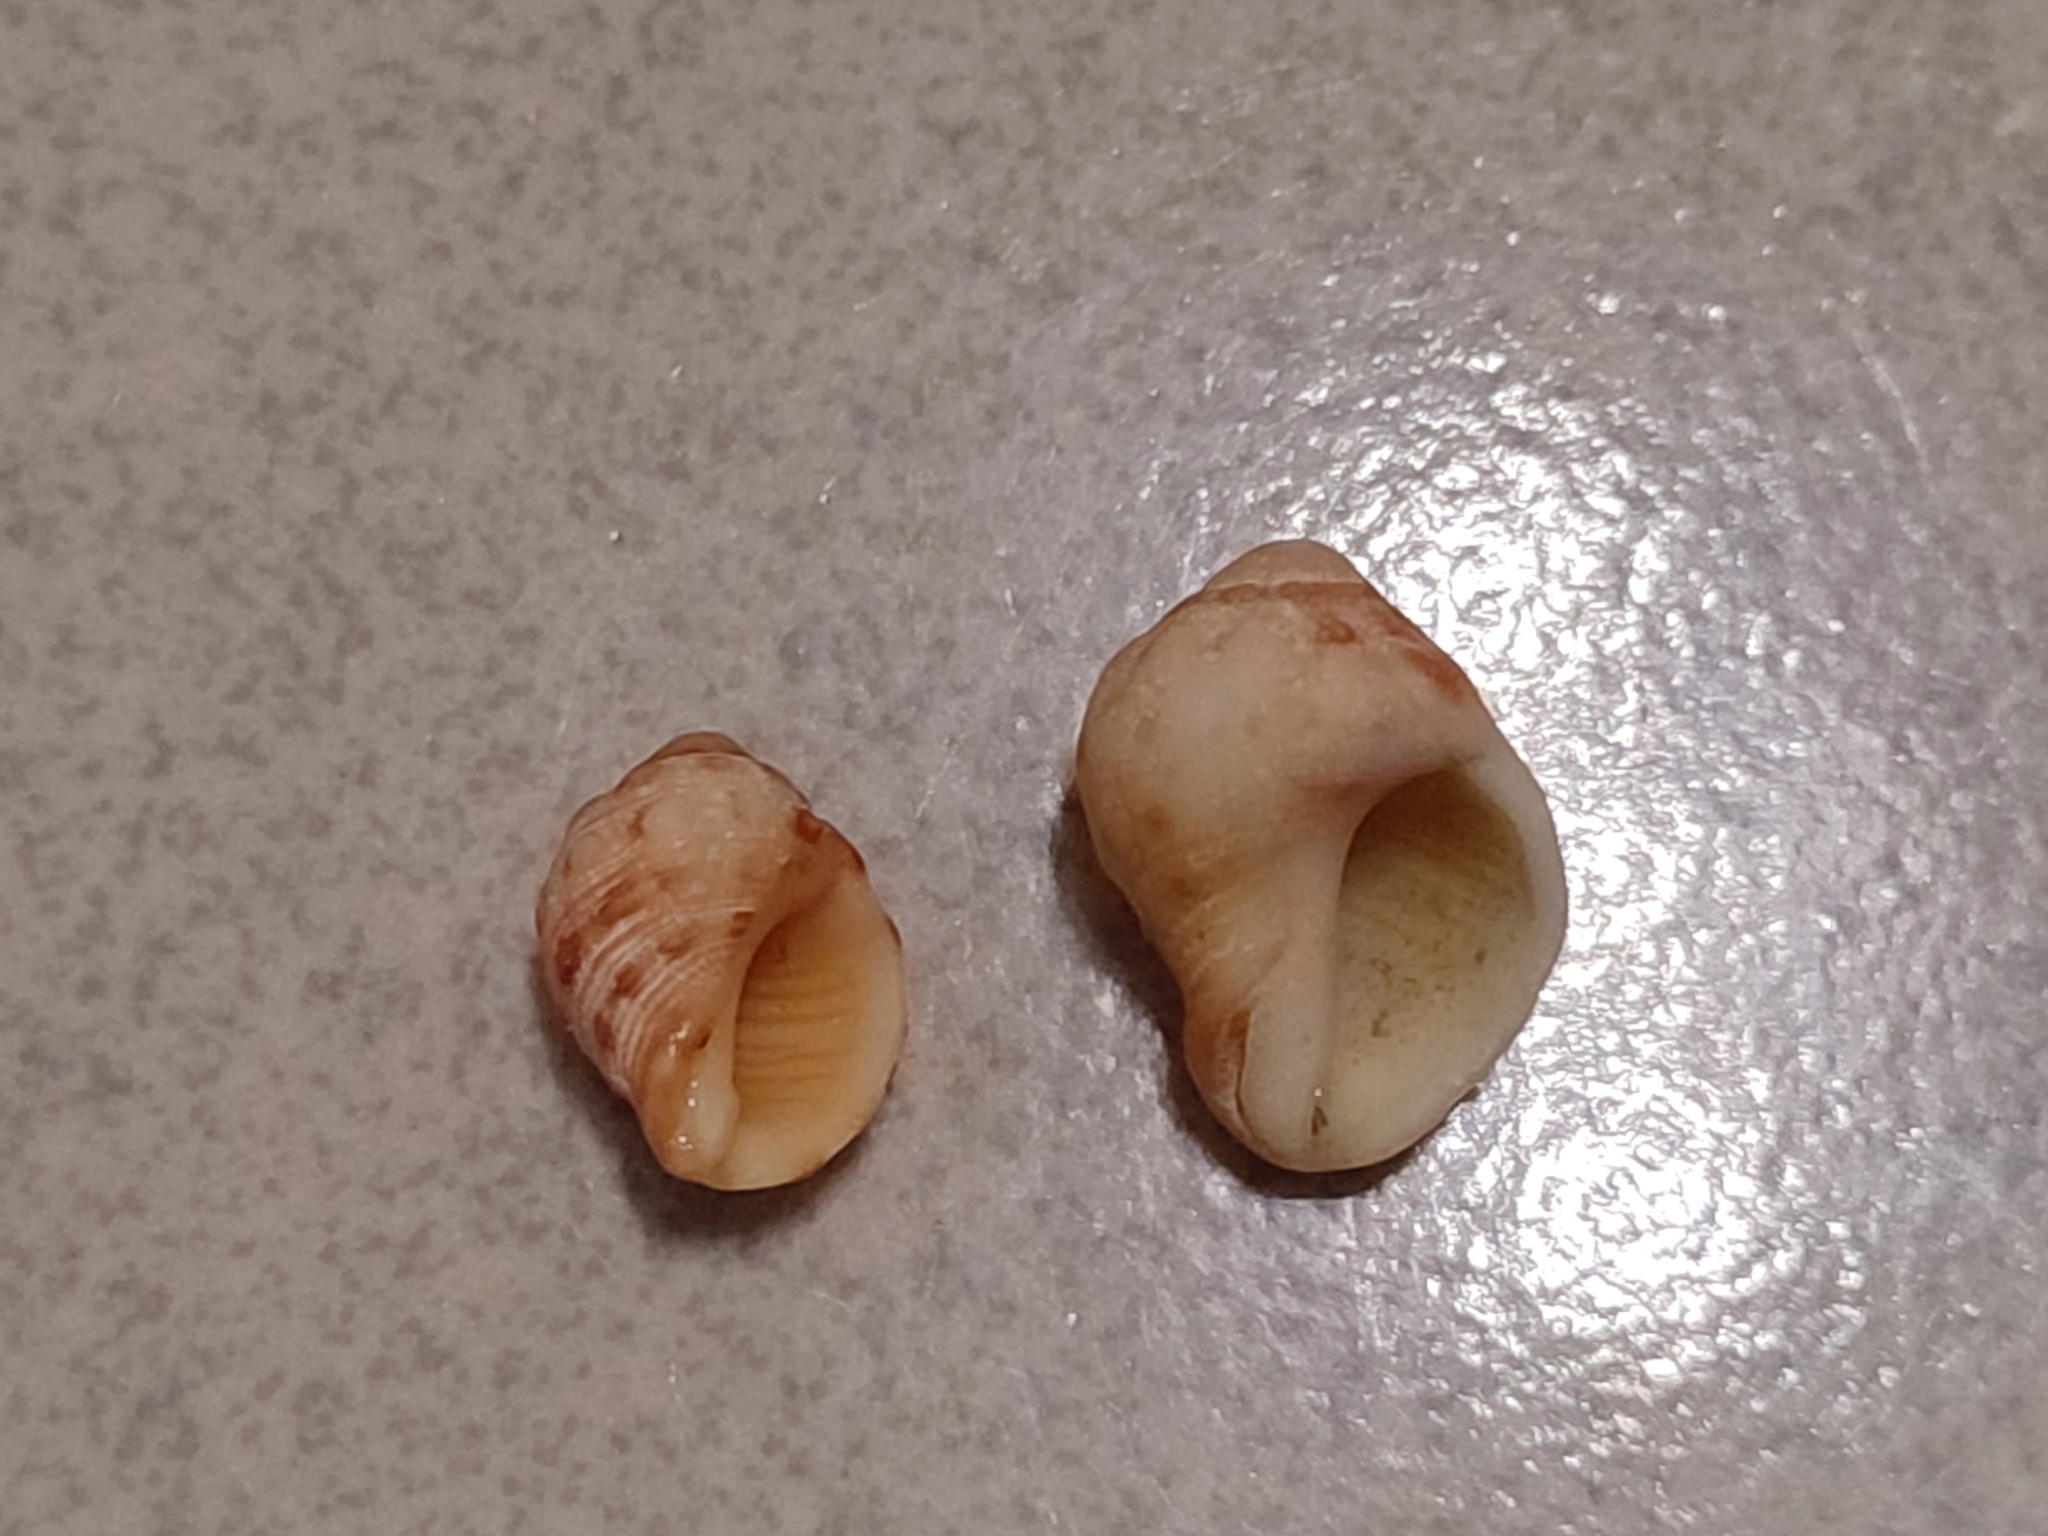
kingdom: Animalia
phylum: Mollusca
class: Gastropoda
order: Neogastropoda
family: Muricidae
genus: Mancinella
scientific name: Mancinella alouina
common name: Alou rock shell
